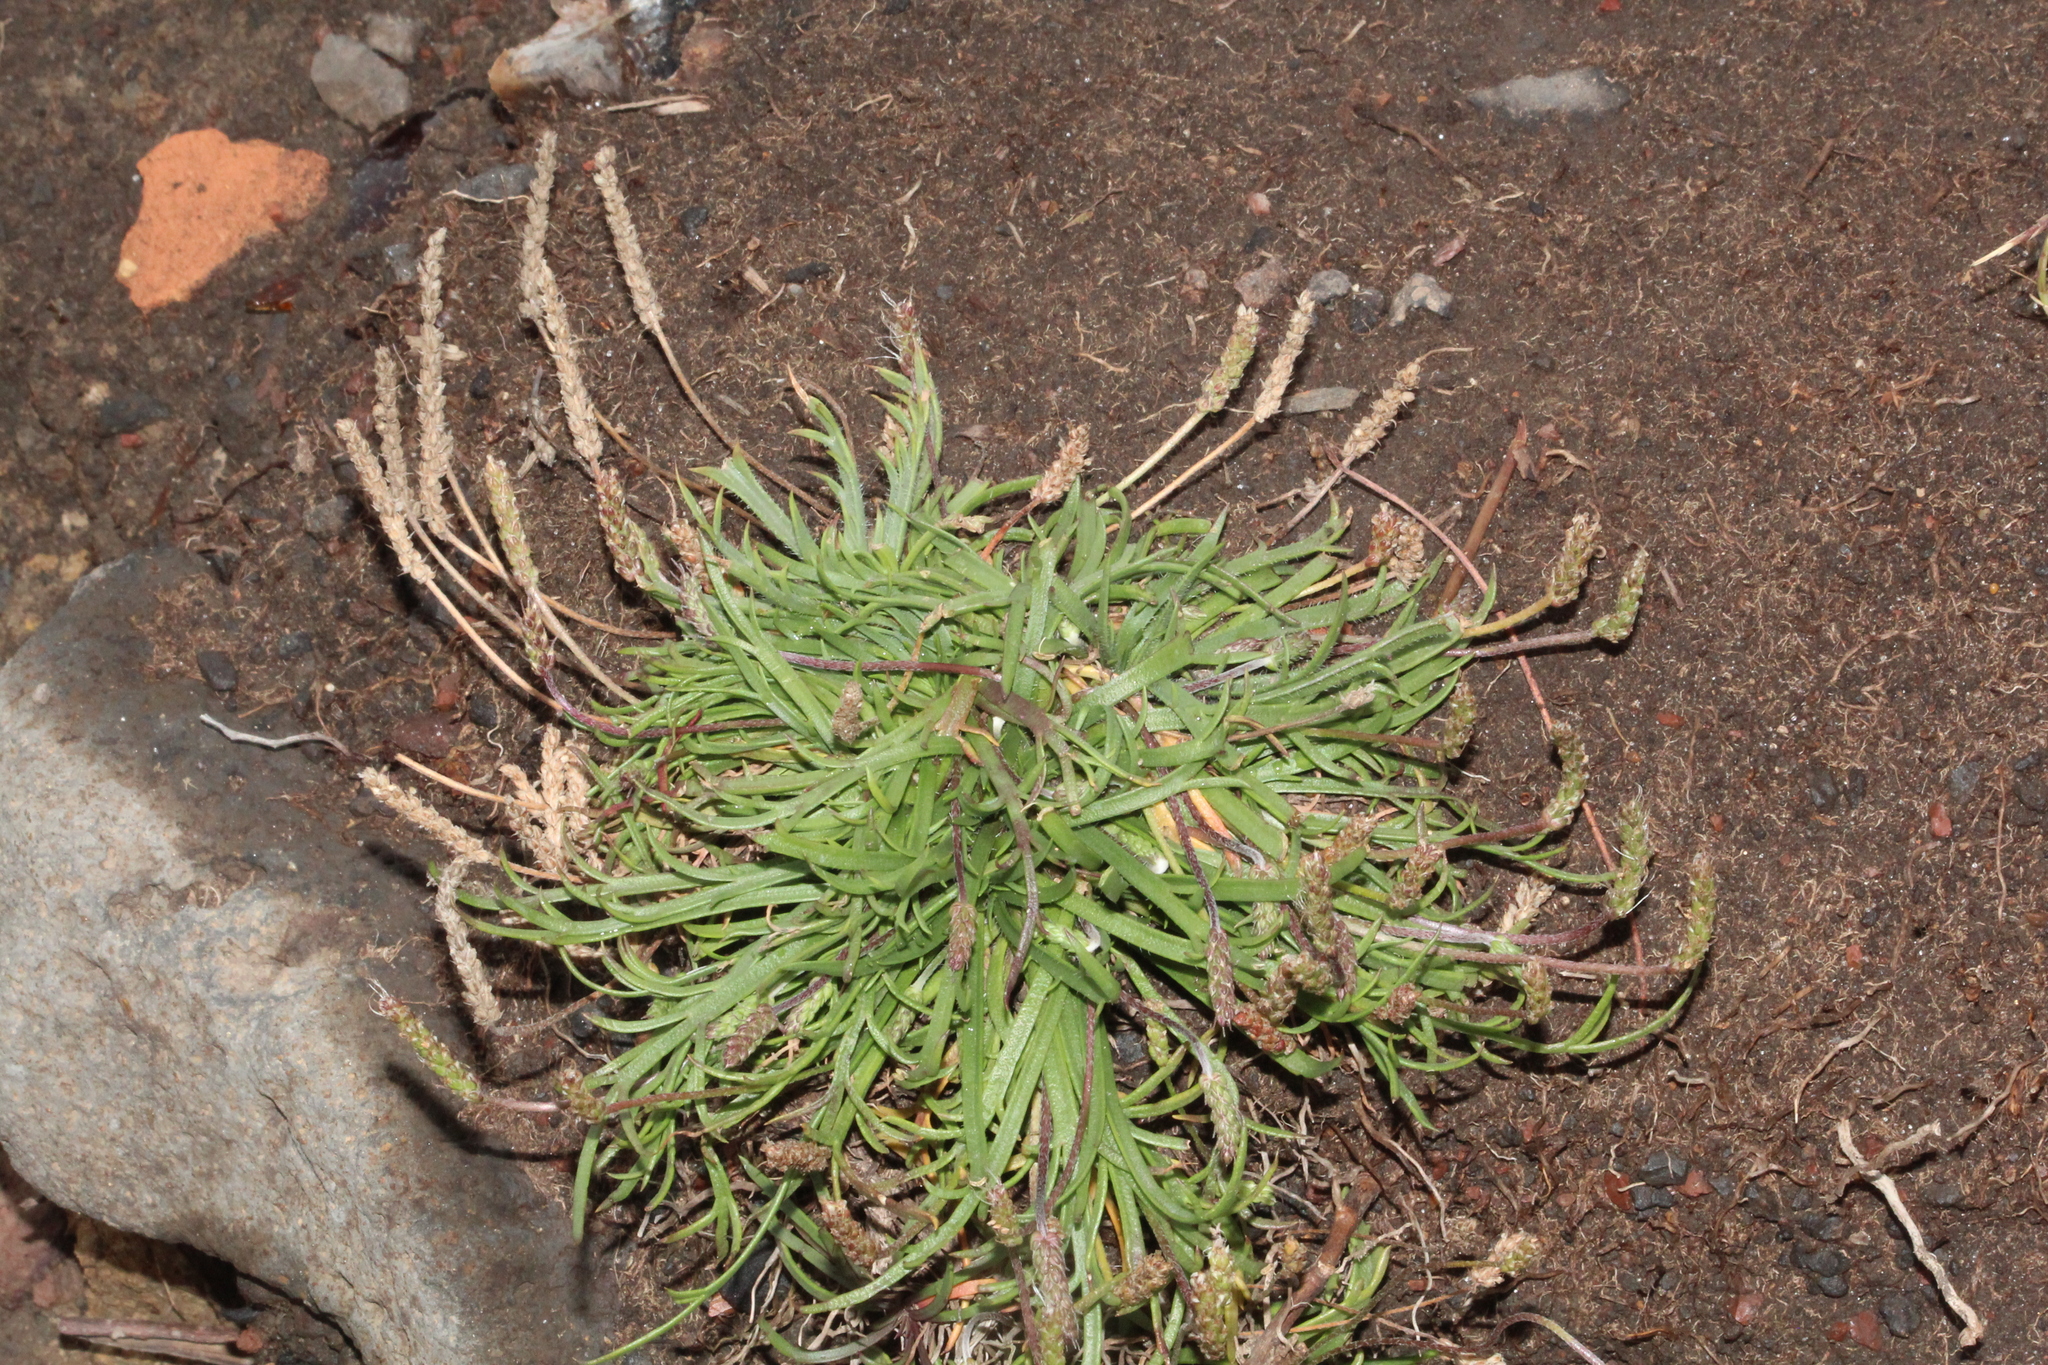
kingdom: Plantae
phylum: Tracheophyta
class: Magnoliopsida
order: Lamiales
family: Plantaginaceae
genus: Plantago
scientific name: Plantago coronopus
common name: Buck's-horn plantain
